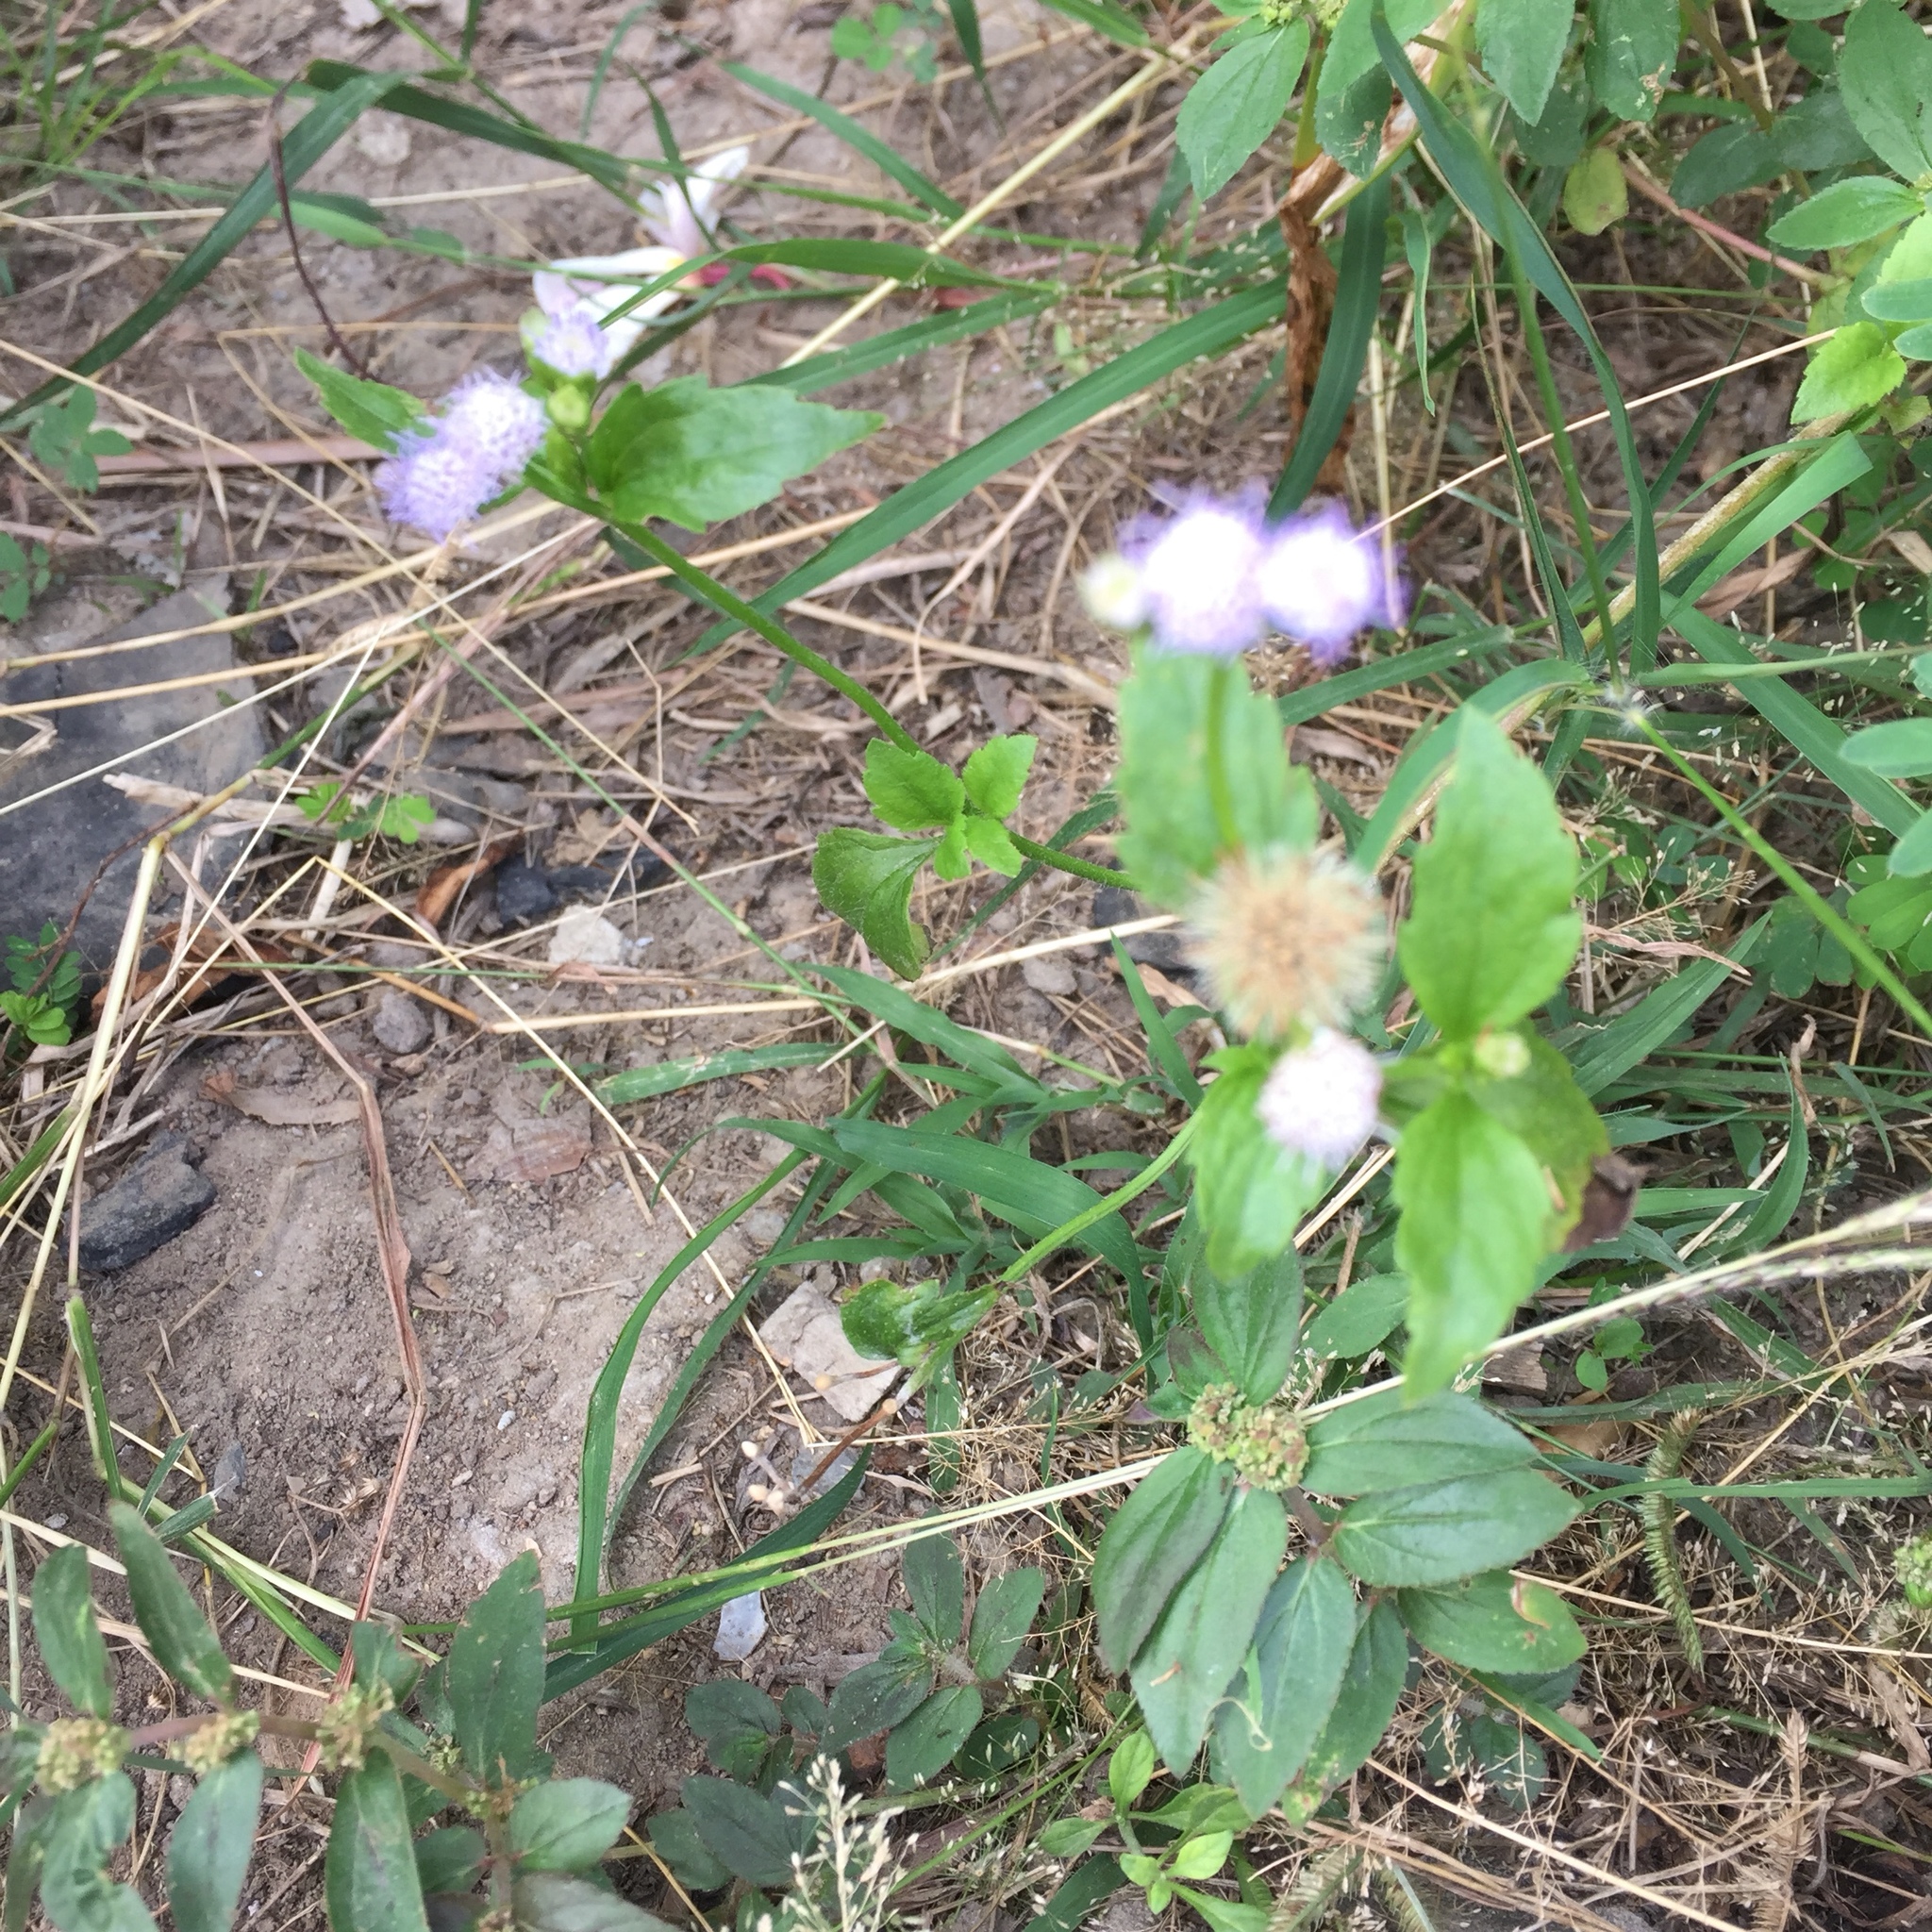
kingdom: Plantae
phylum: Tracheophyta
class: Magnoliopsida
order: Asterales
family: Asteraceae
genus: Praxelis
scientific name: Praxelis clematidea
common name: Praxelis
